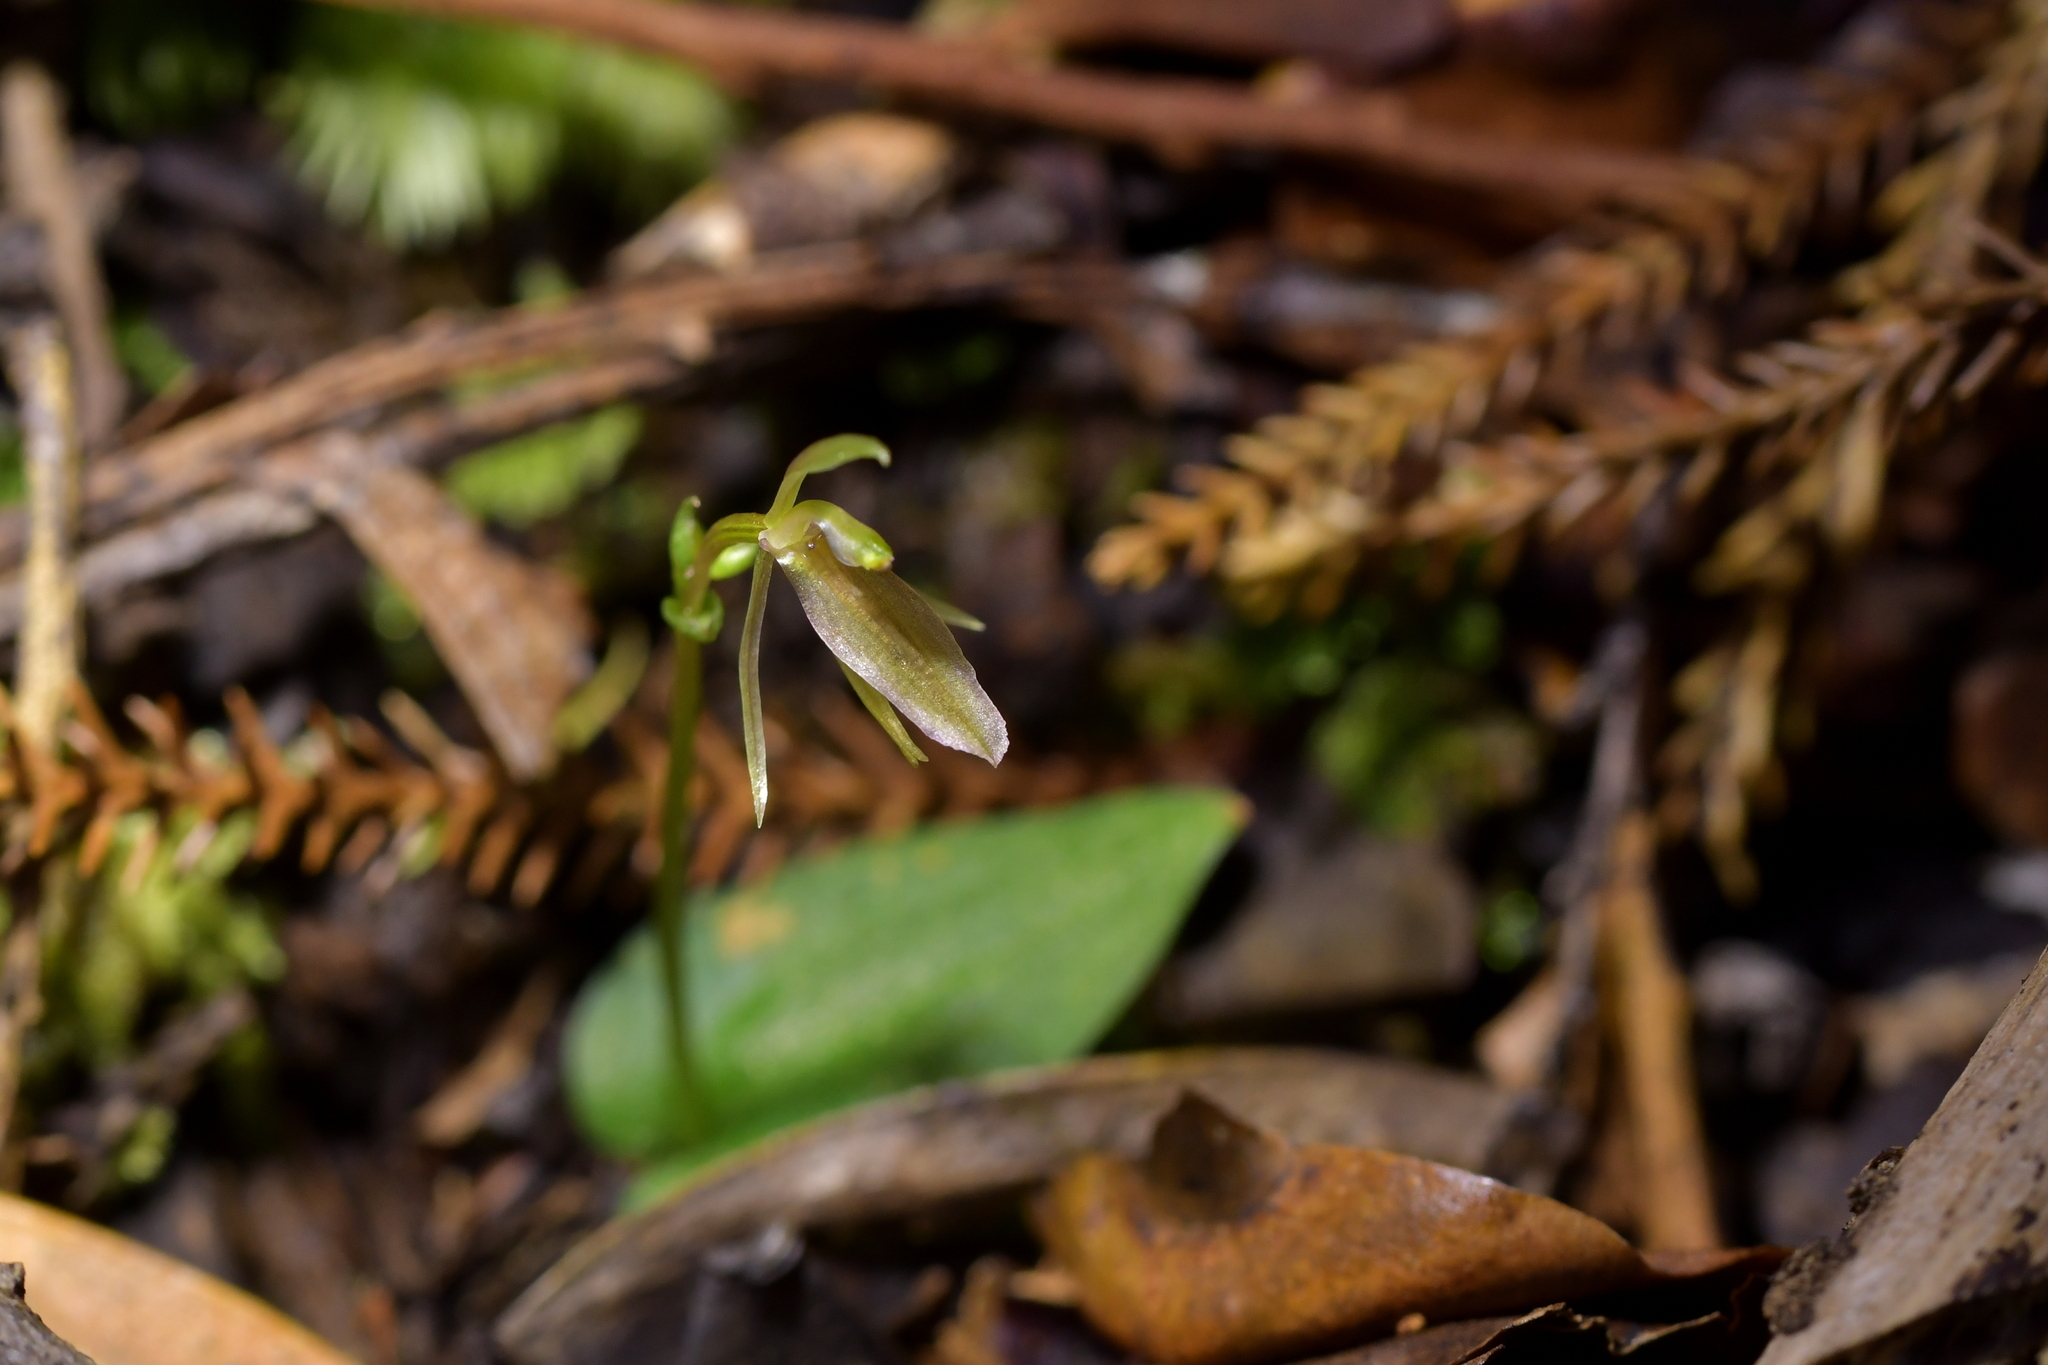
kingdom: Plantae
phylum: Tracheophyta
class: Liliopsida
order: Asparagales
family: Orchidaceae
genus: Cyrtostylis
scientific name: Cyrtostylis oblonga
